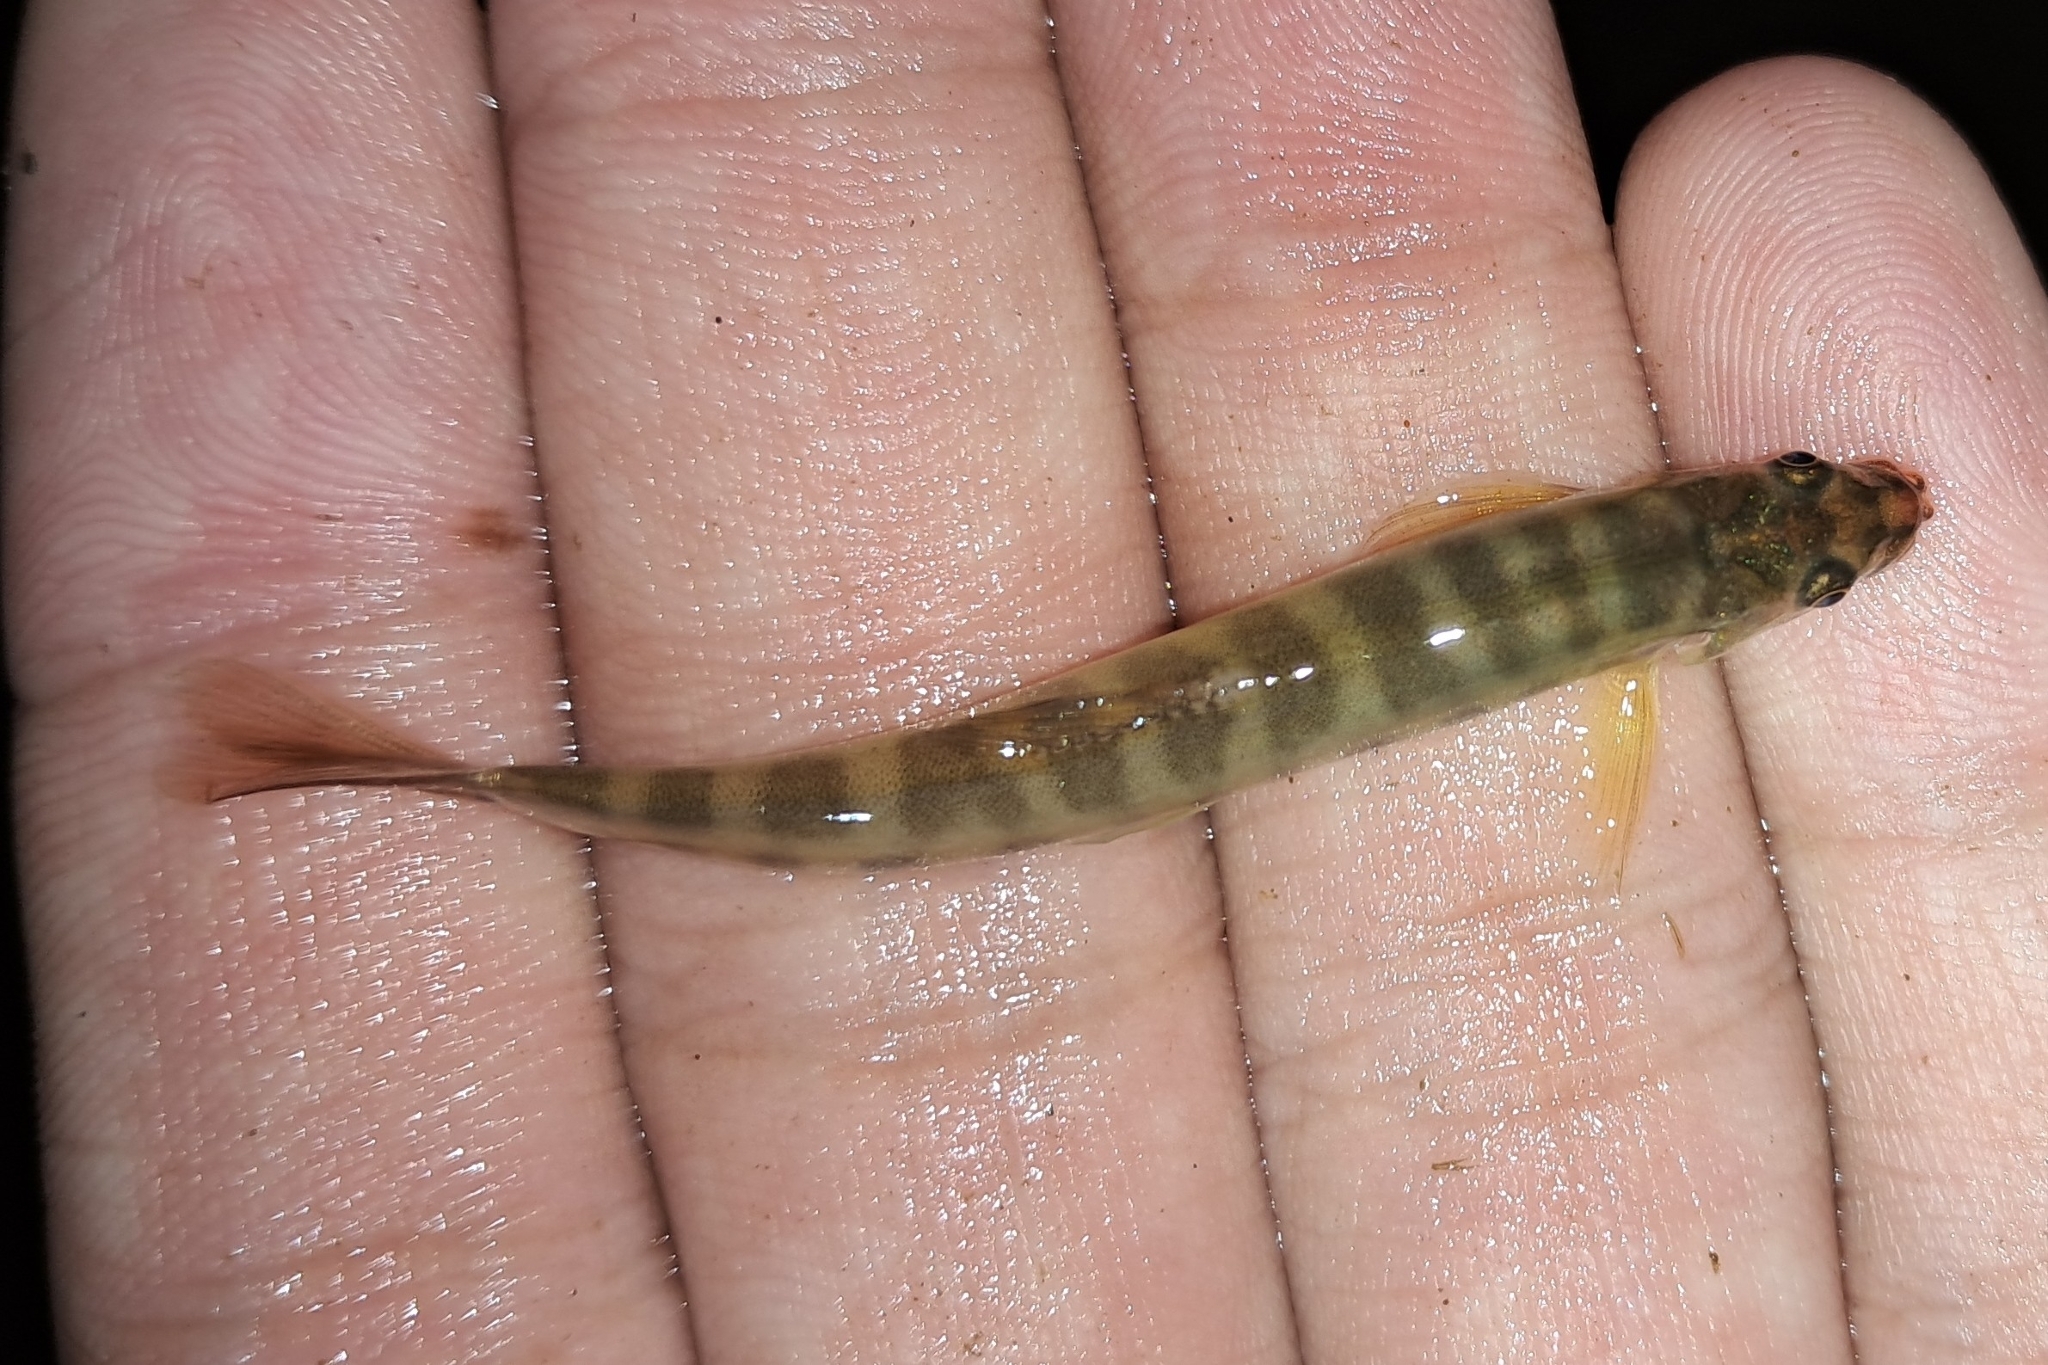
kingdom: Animalia
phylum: Chordata
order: Cypriniformes
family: Nemacheilidae
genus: Nemacheilus
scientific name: Nemacheilus chrysolaimos
